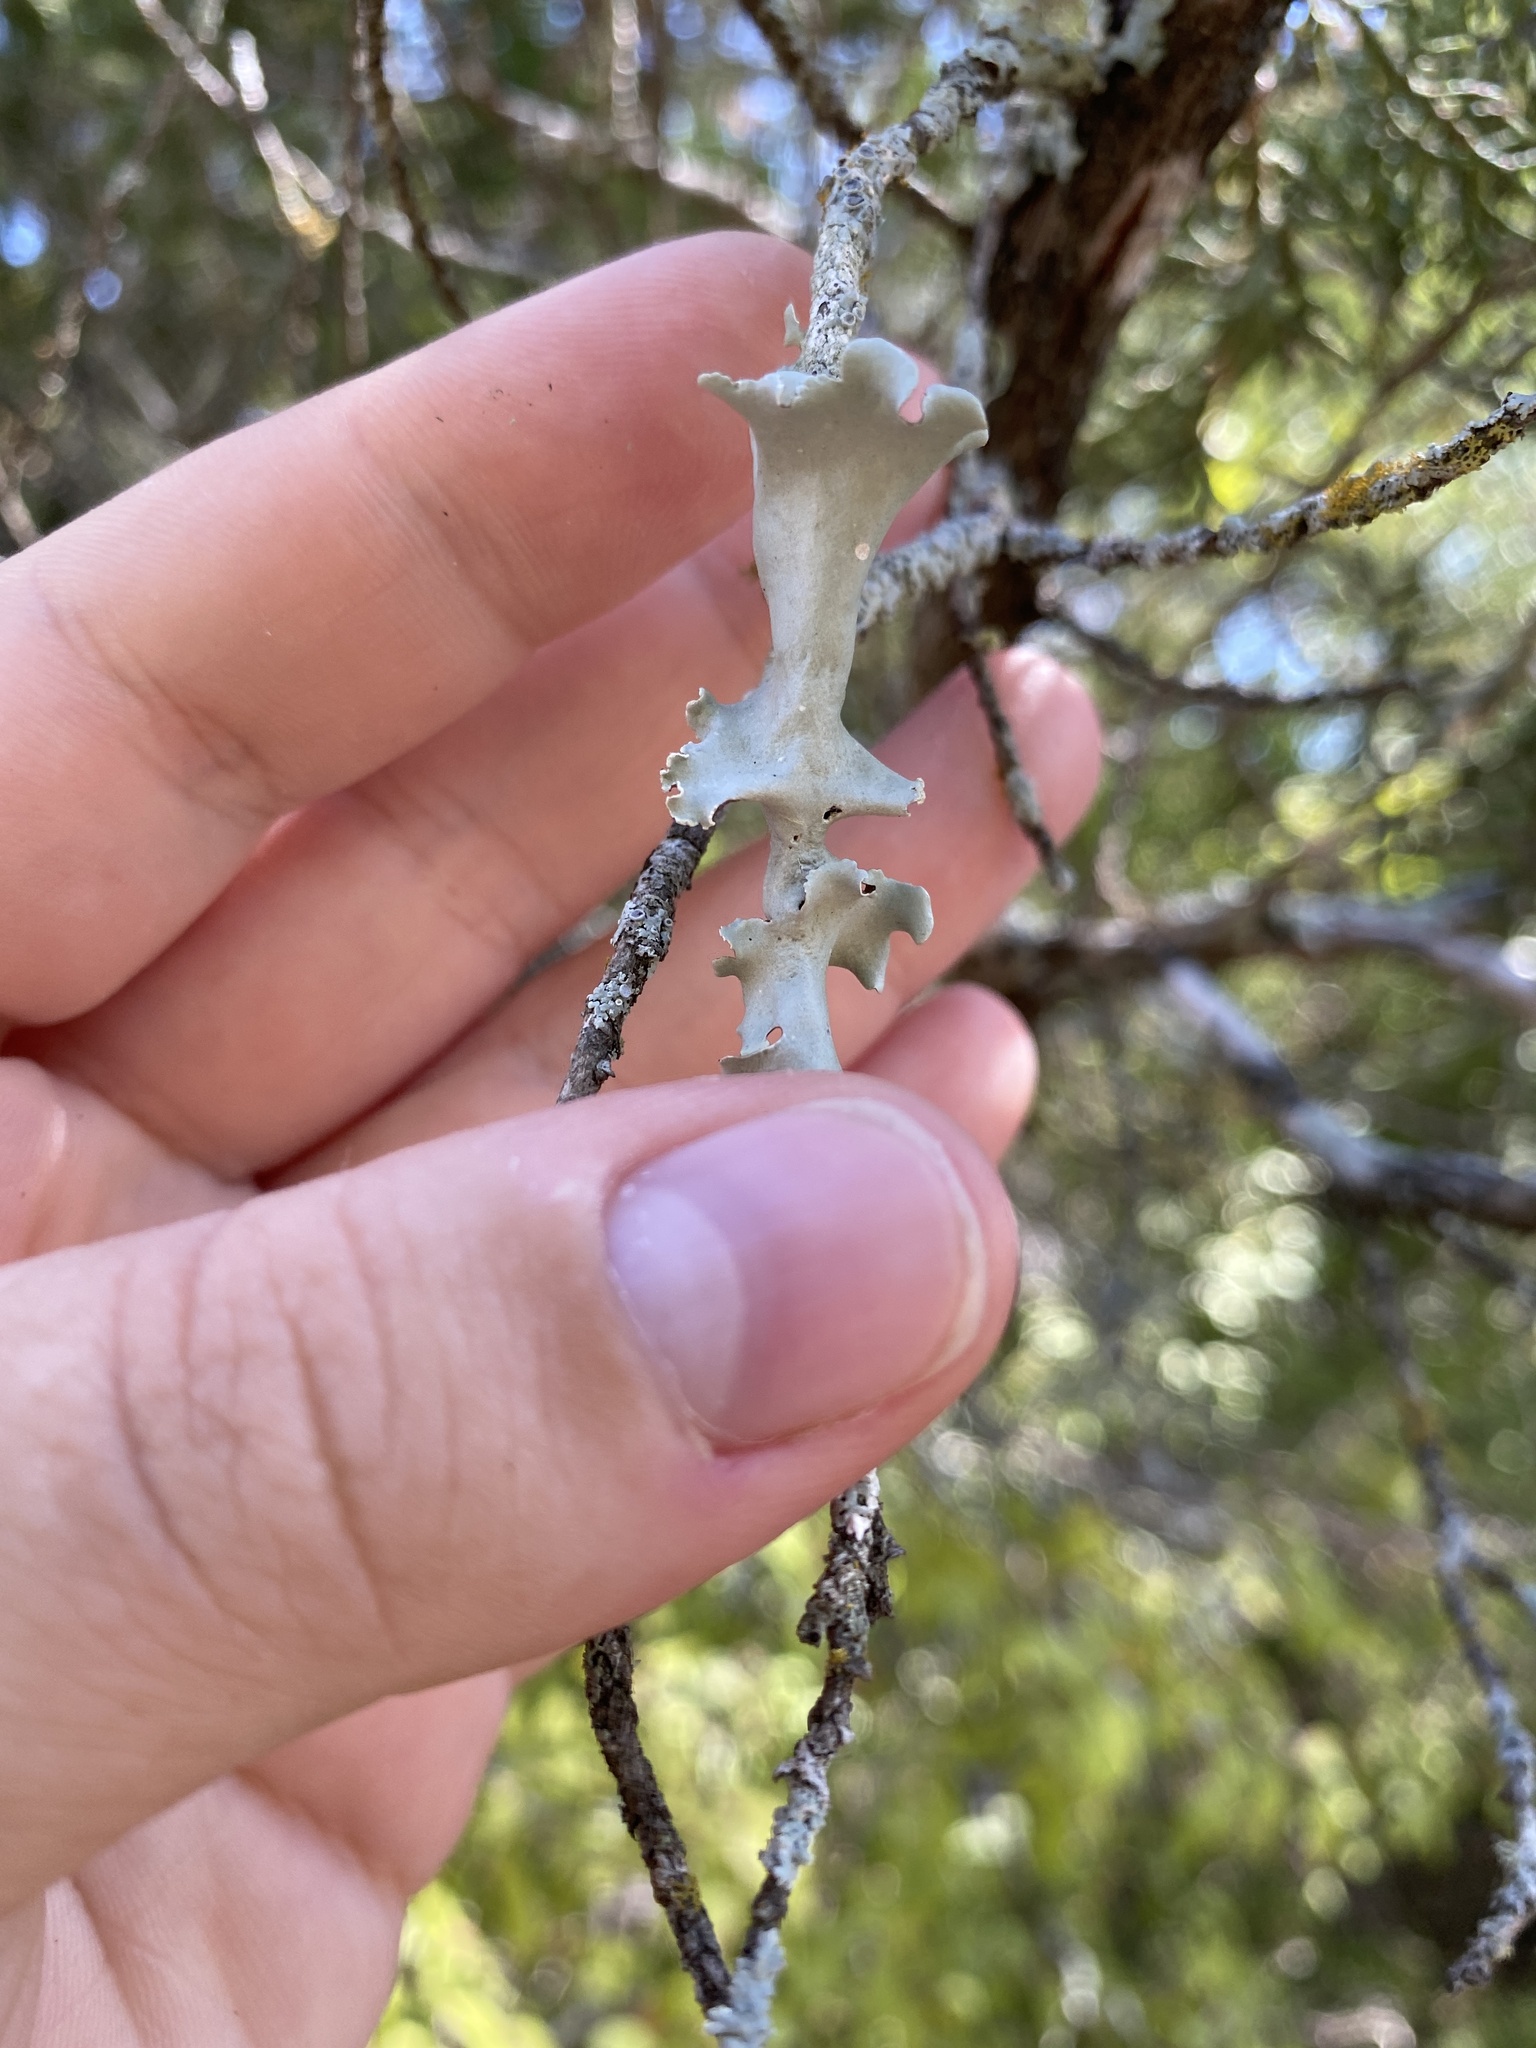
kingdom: Fungi
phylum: Ascomycota
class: Lecanoromycetes
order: Lecanorales
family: Parmeliaceae
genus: Parmotrema
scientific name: Parmotrema austrosinense
